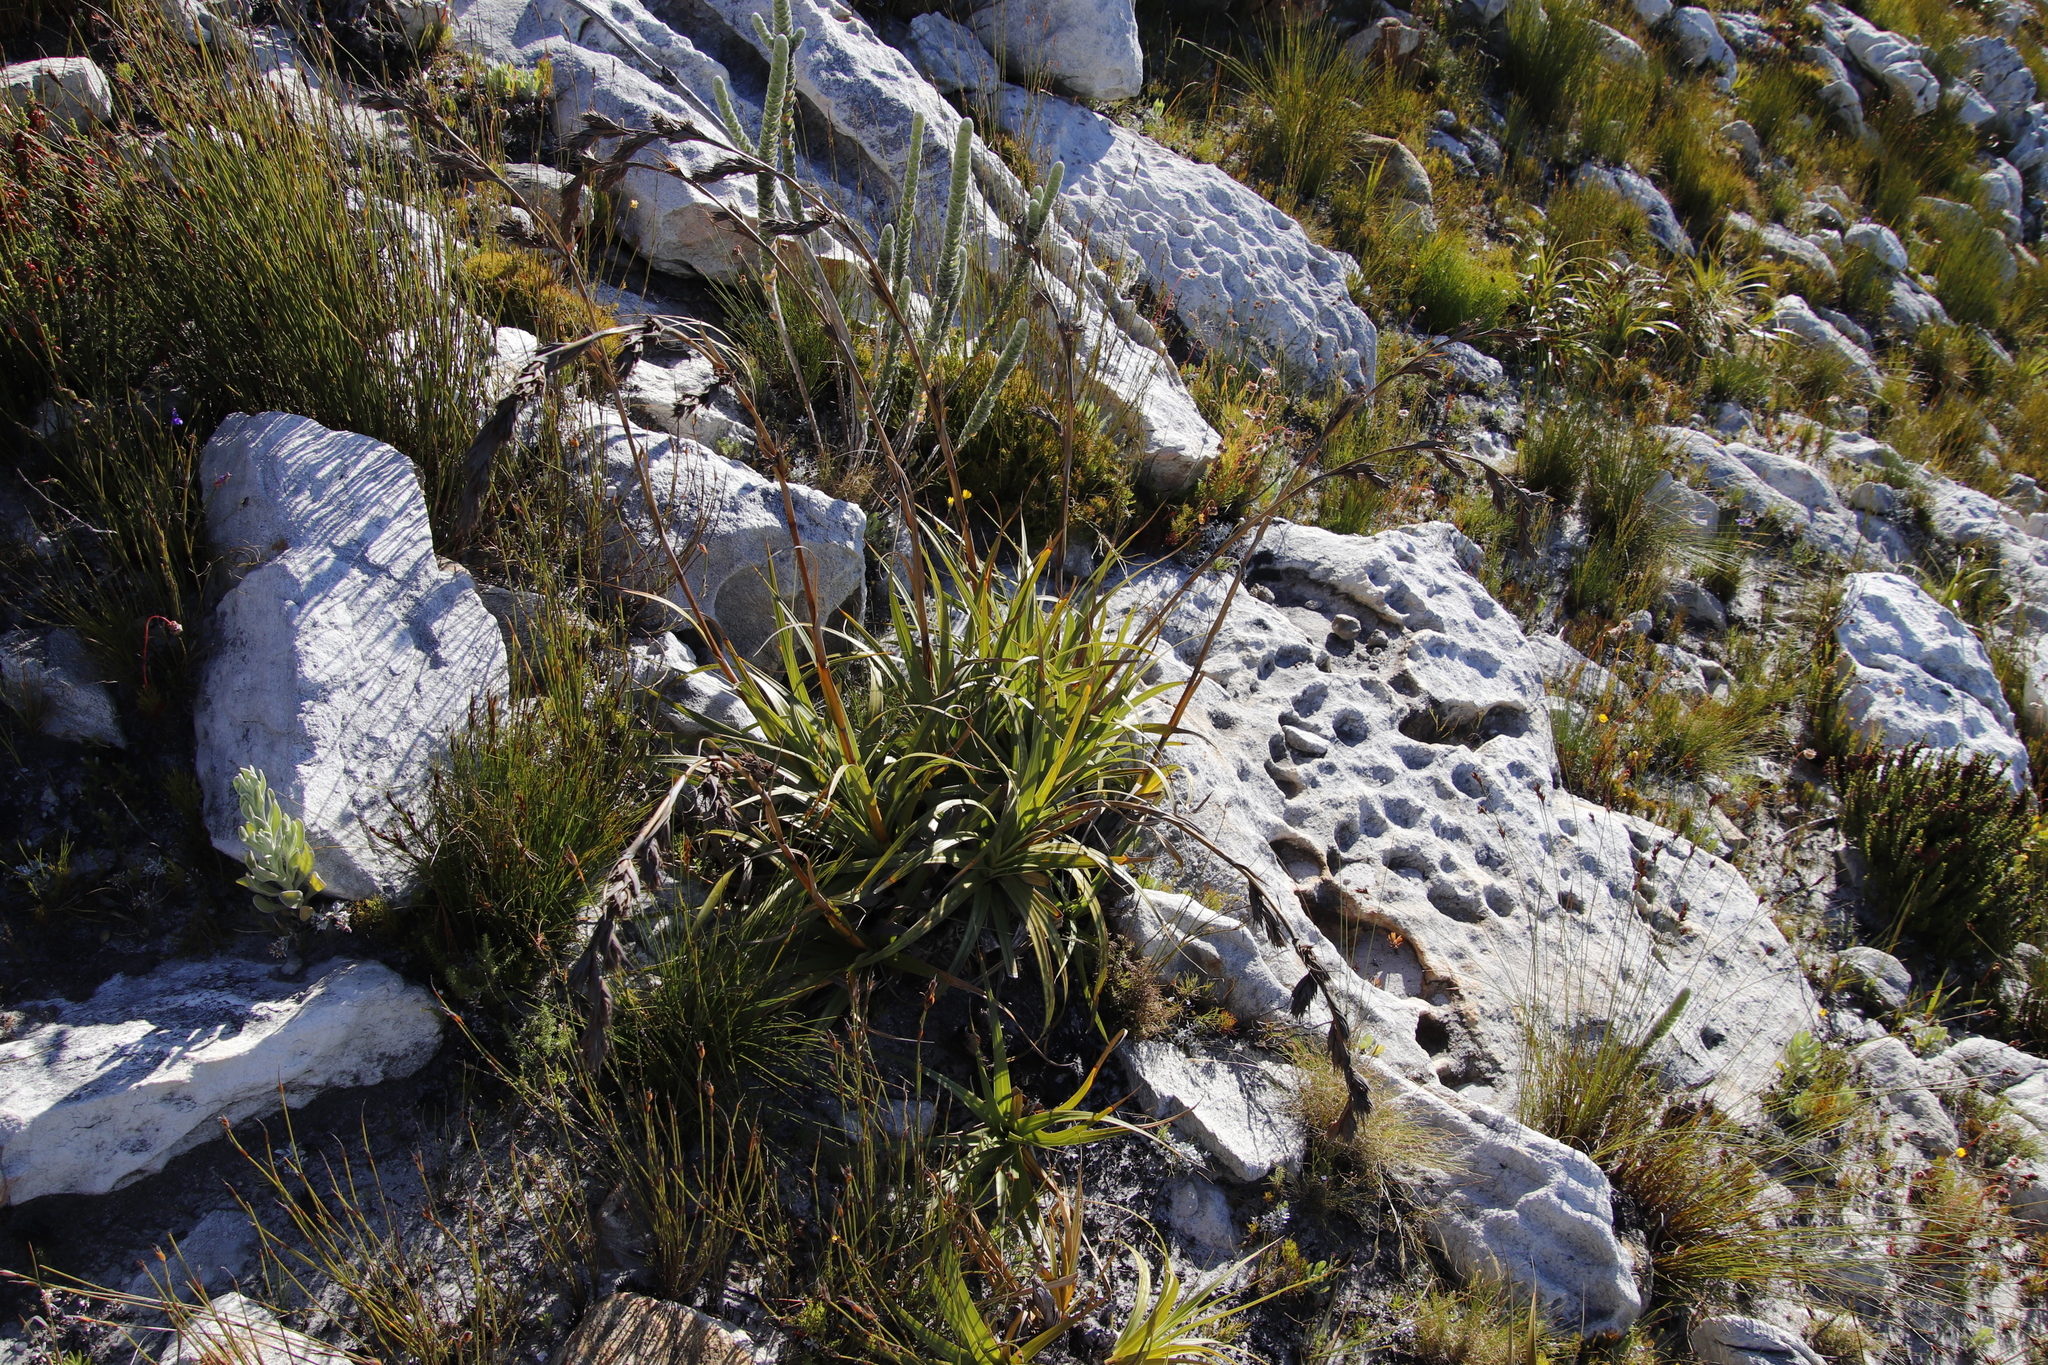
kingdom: Plantae
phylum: Tracheophyta
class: Liliopsida
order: Poales
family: Cyperaceae
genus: Tetraria
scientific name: Tetraria thermalis
